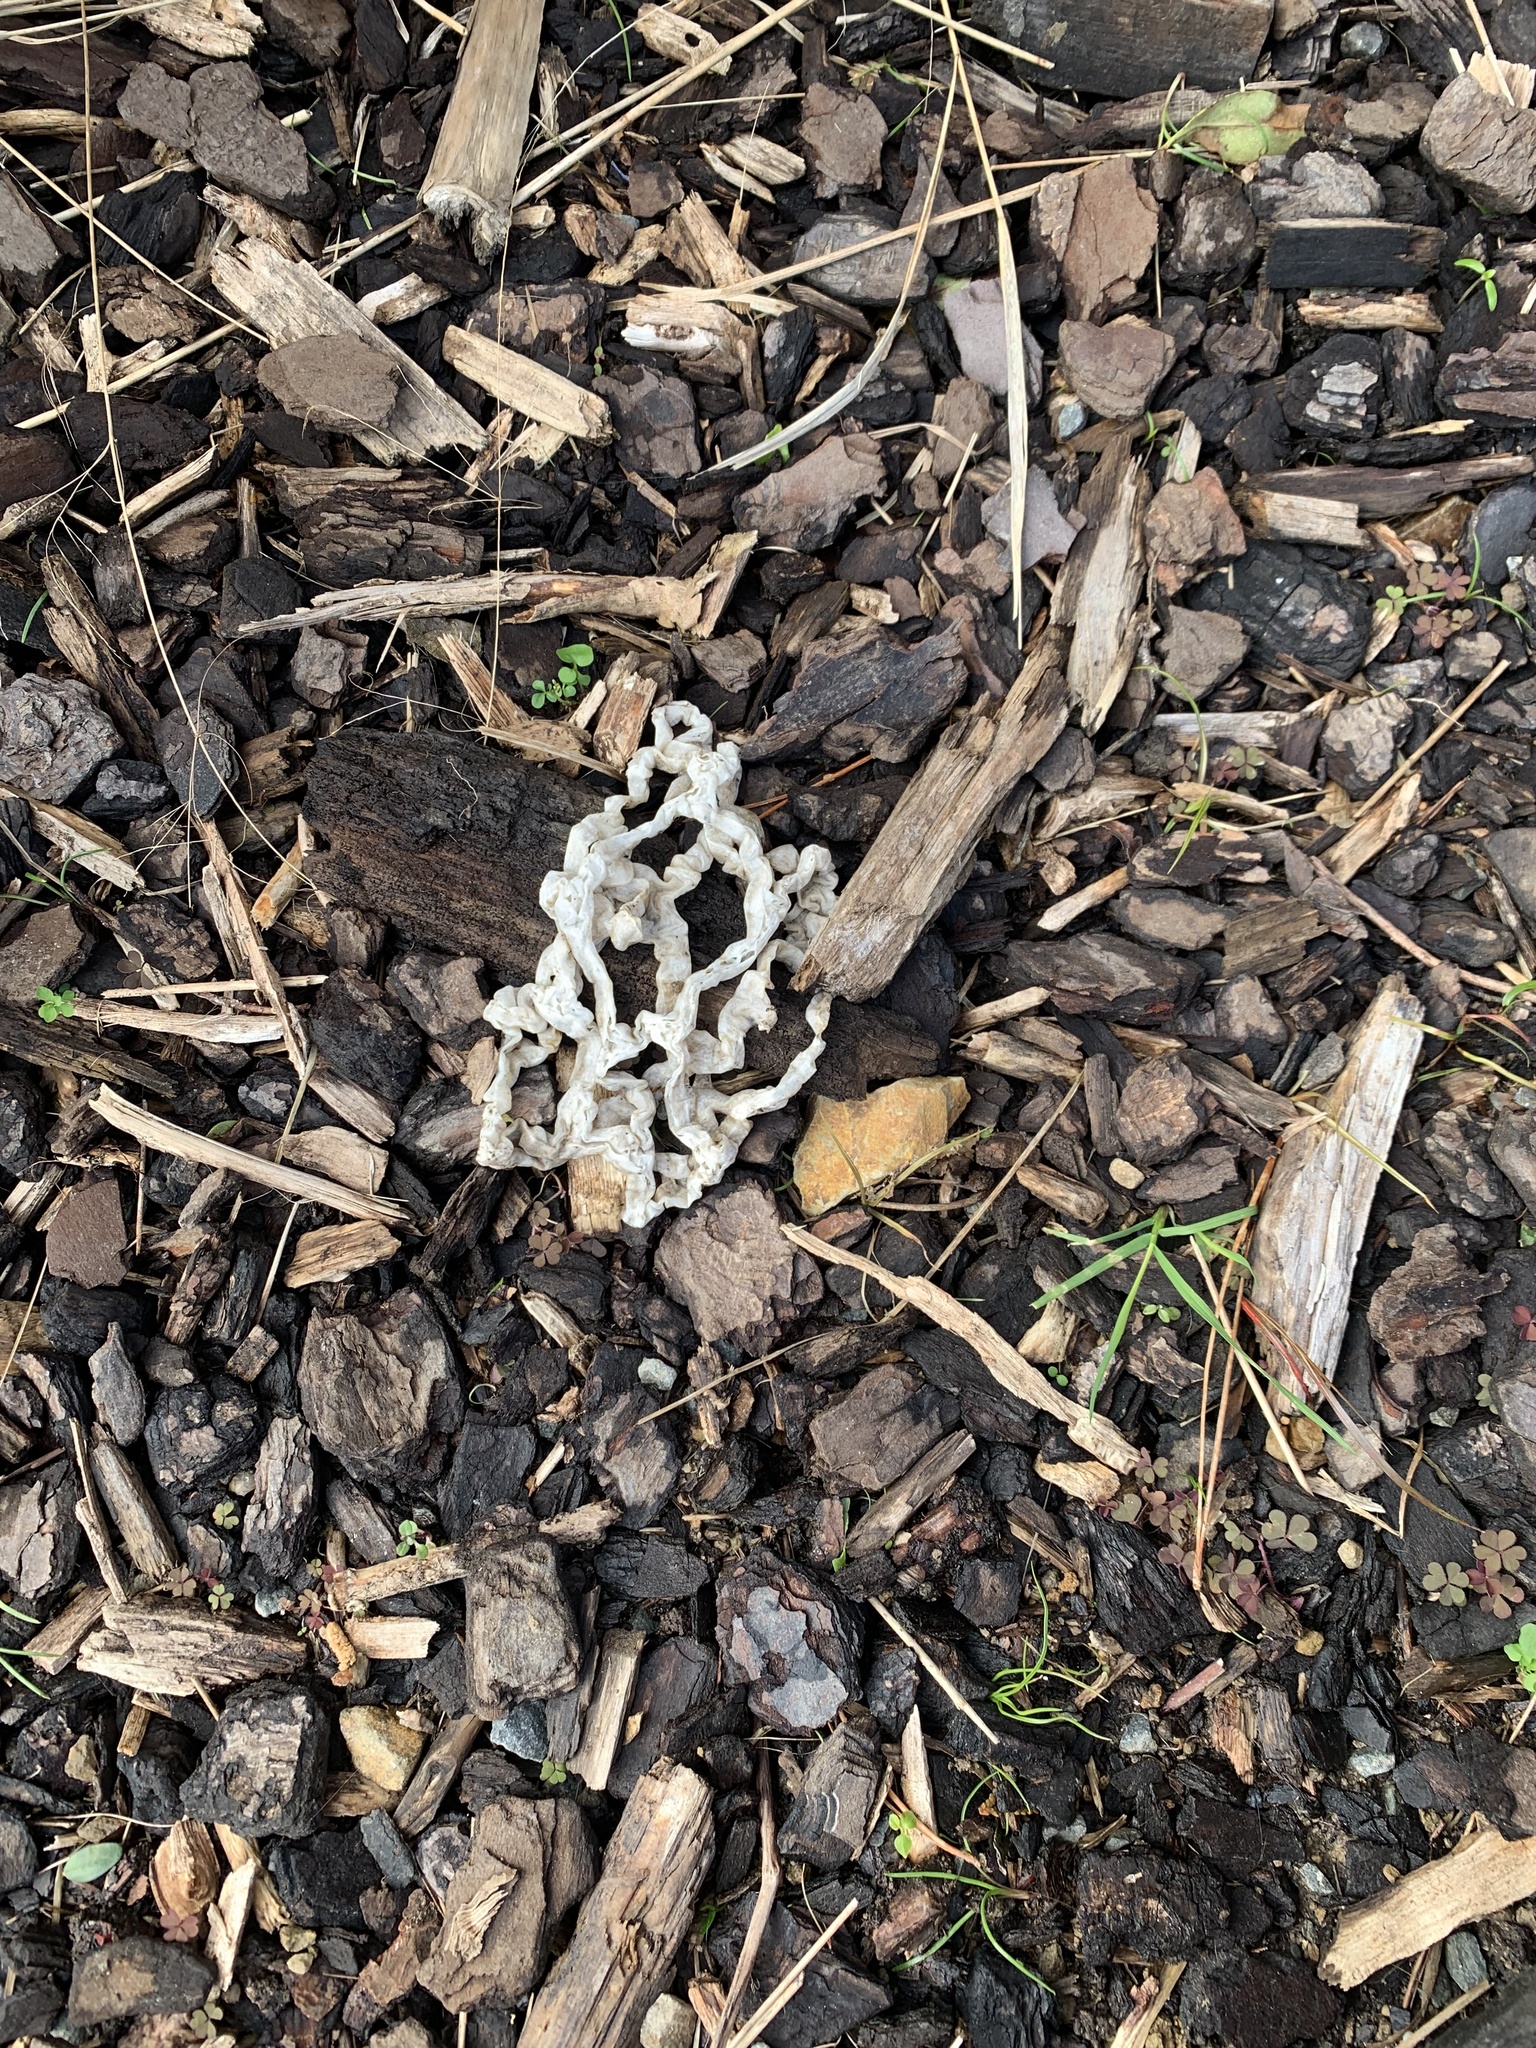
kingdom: Fungi
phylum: Basidiomycota
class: Agaricomycetes
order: Phallales
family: Phallaceae
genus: Ileodictyon
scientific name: Ileodictyon cibarium
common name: Basket fungus
